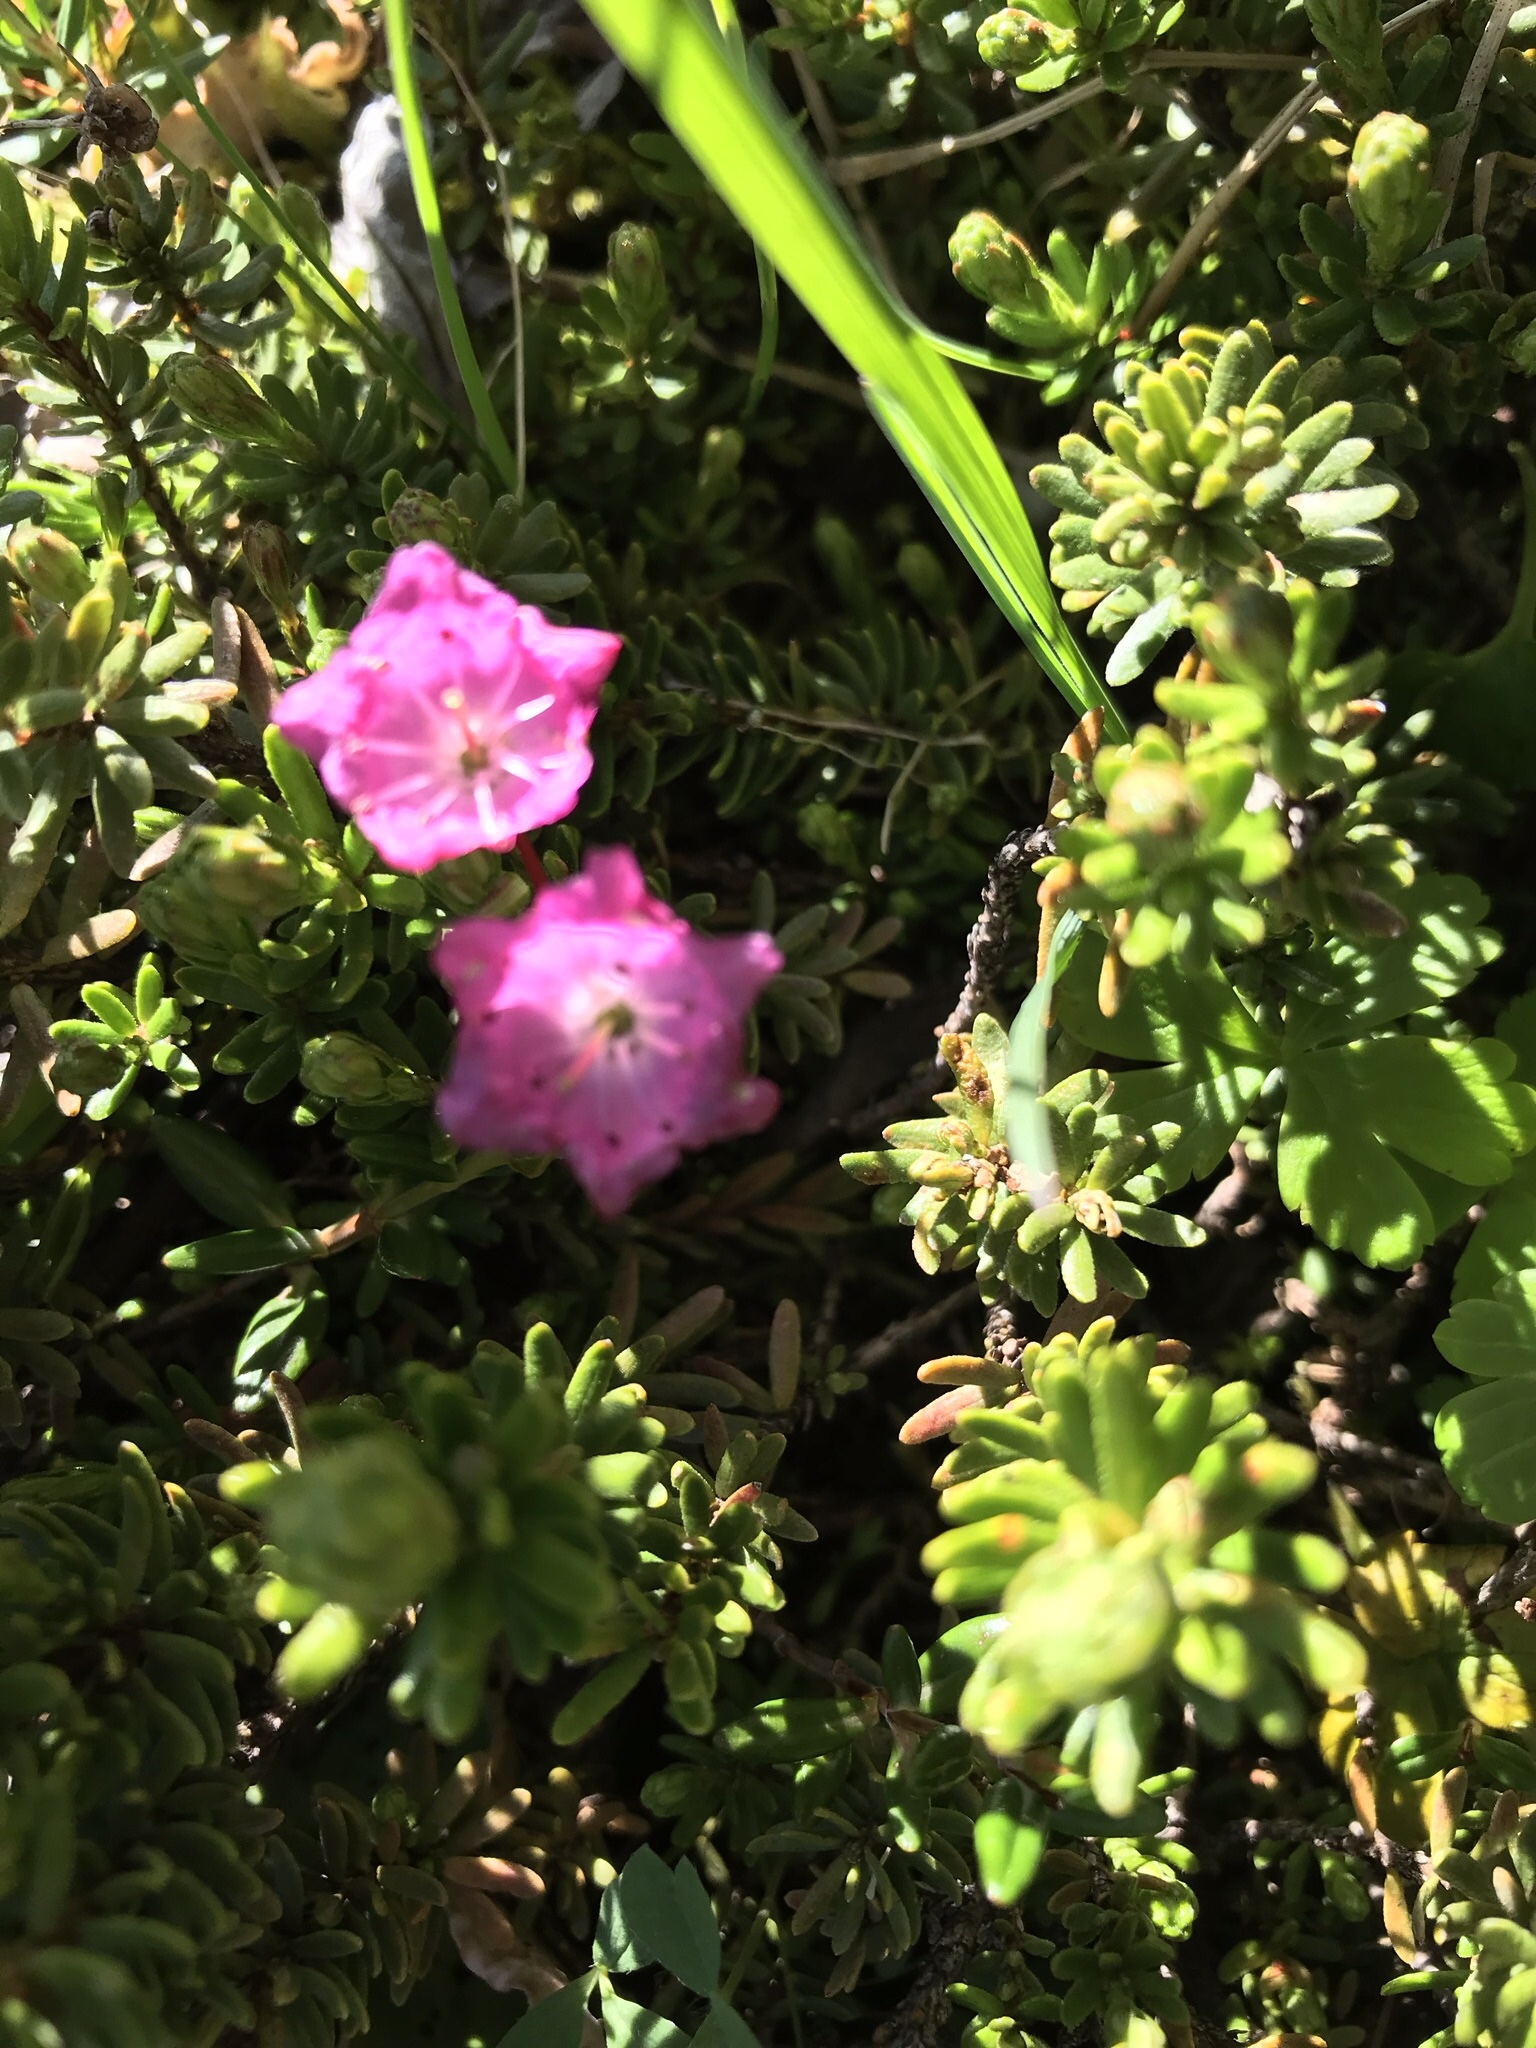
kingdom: Plantae
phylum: Tracheophyta
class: Magnoliopsida
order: Ericales
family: Ericaceae
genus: Kalmia
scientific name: Kalmia microphylla
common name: Alpine bog laurel
